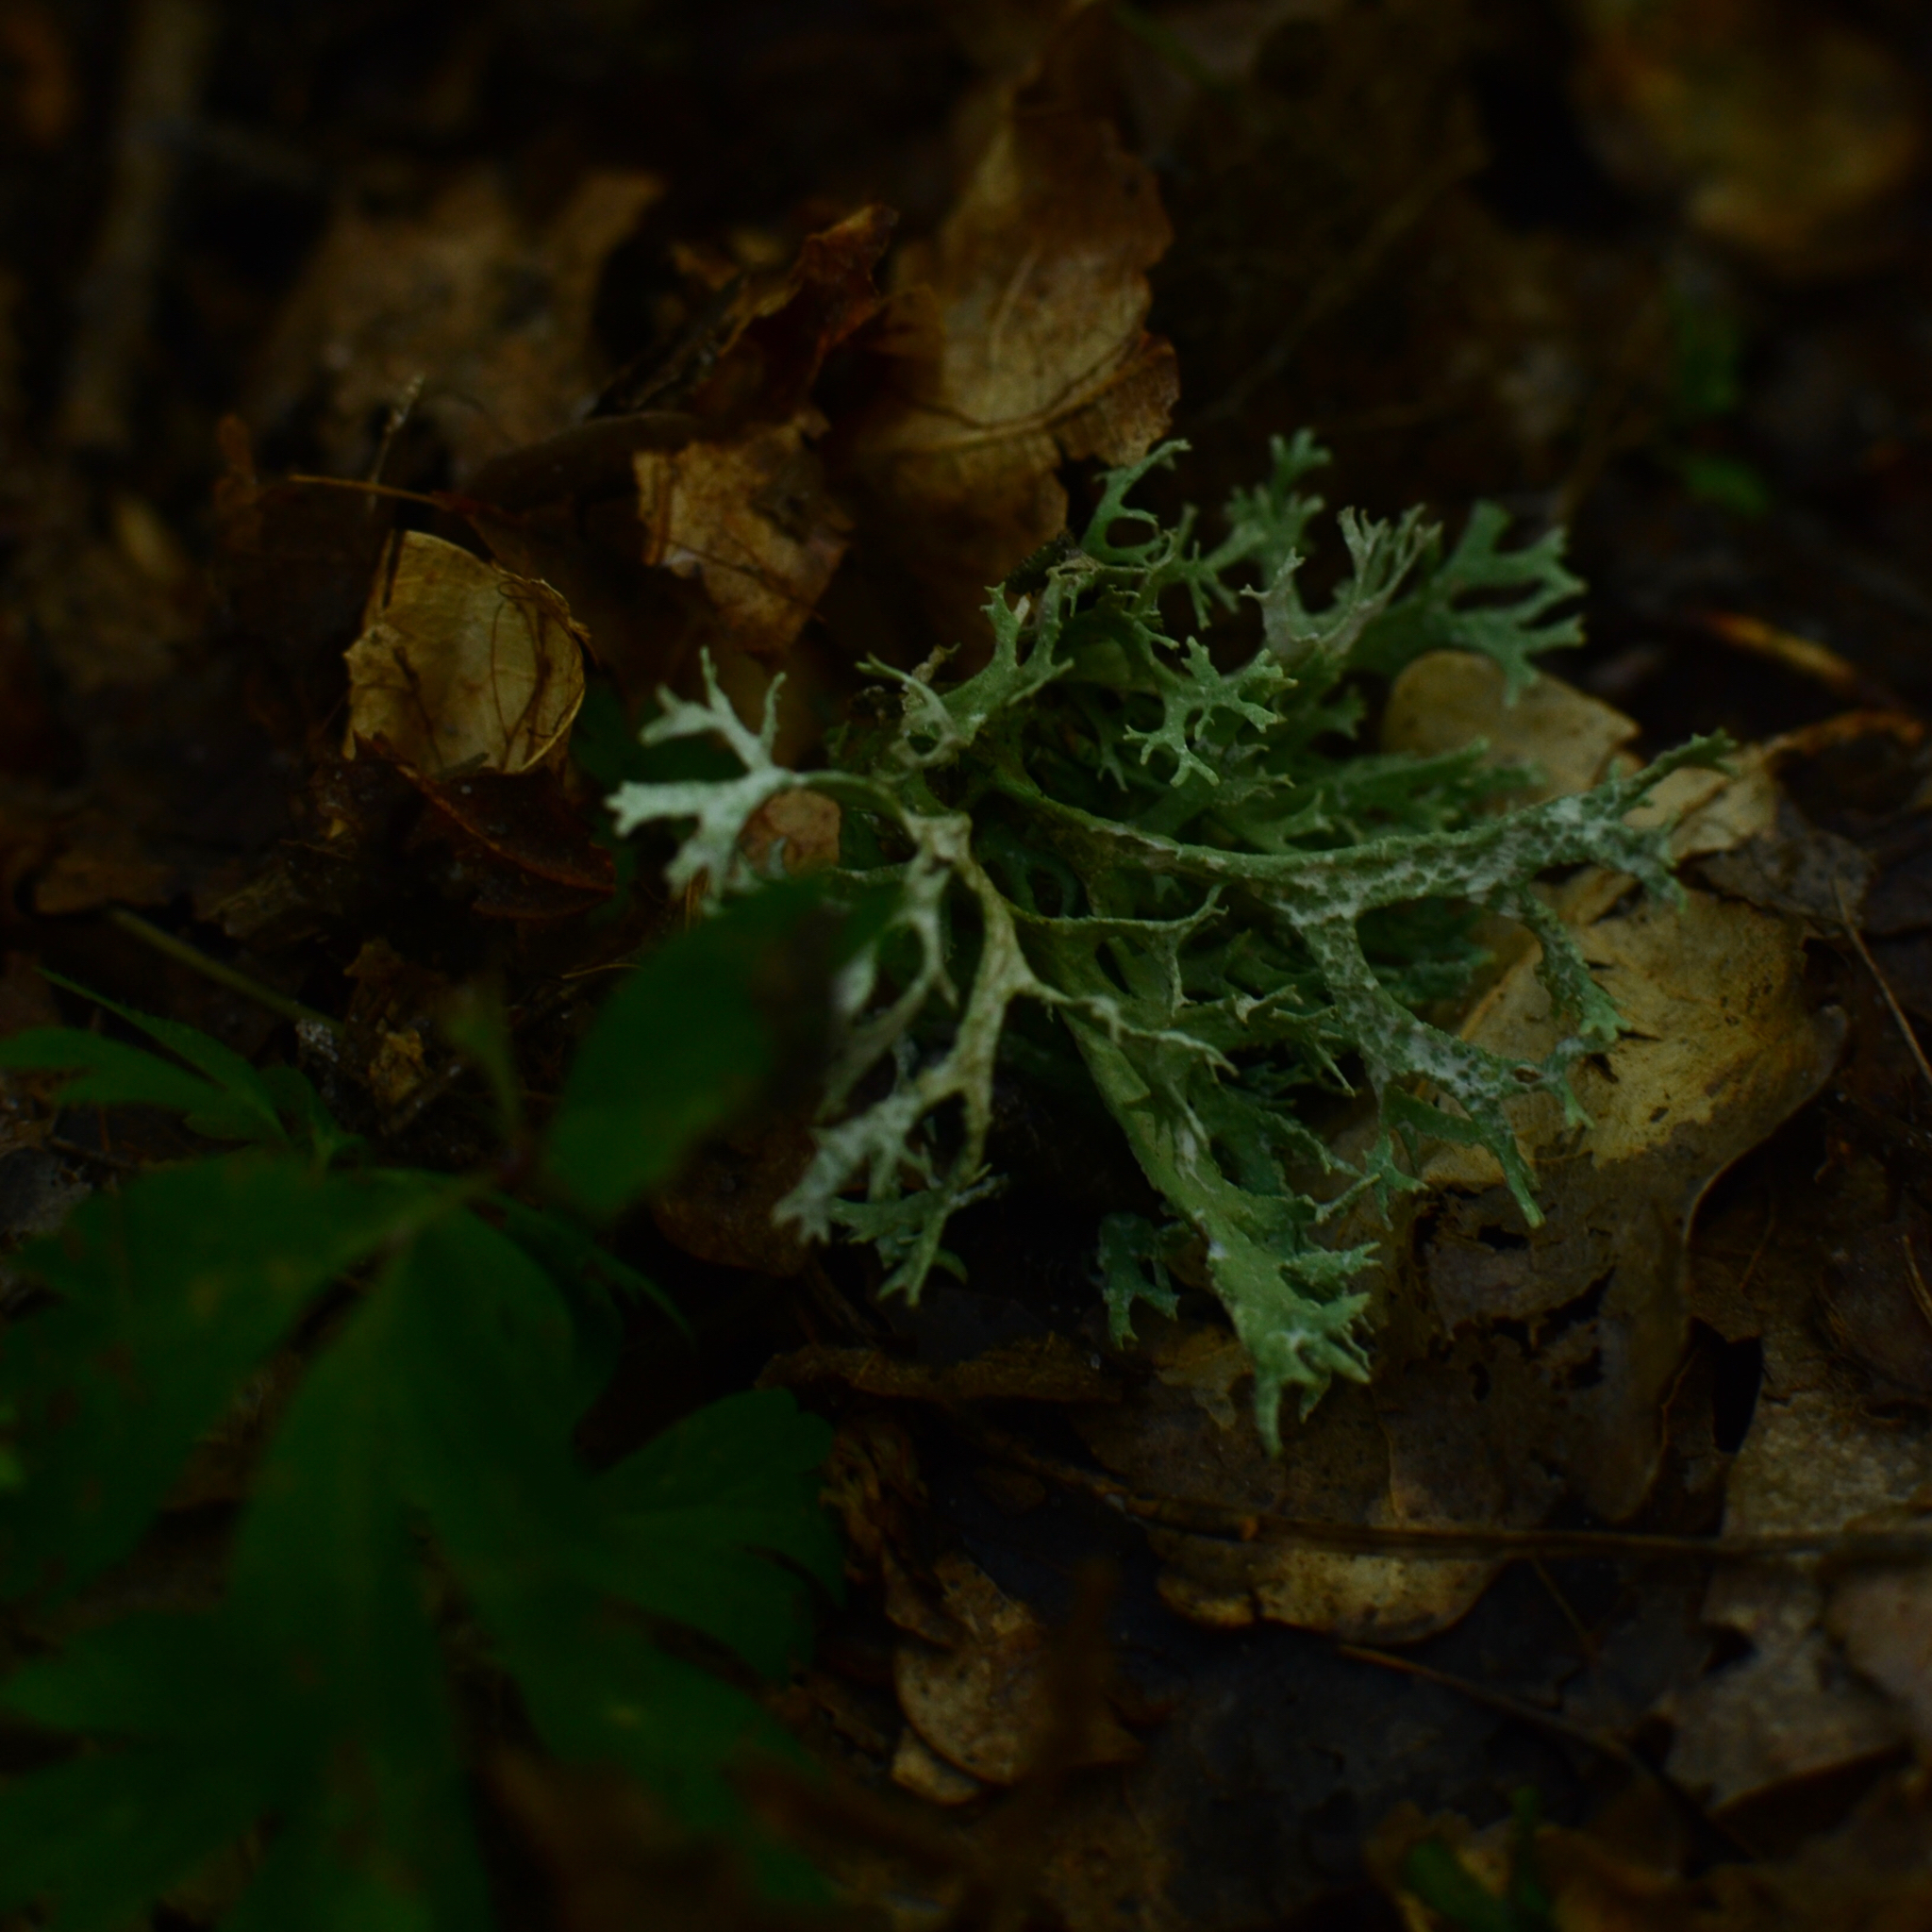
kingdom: Fungi
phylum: Ascomycota
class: Lecanoromycetes
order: Lecanorales
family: Parmeliaceae
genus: Evernia
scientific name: Evernia prunastri
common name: Oak moss
